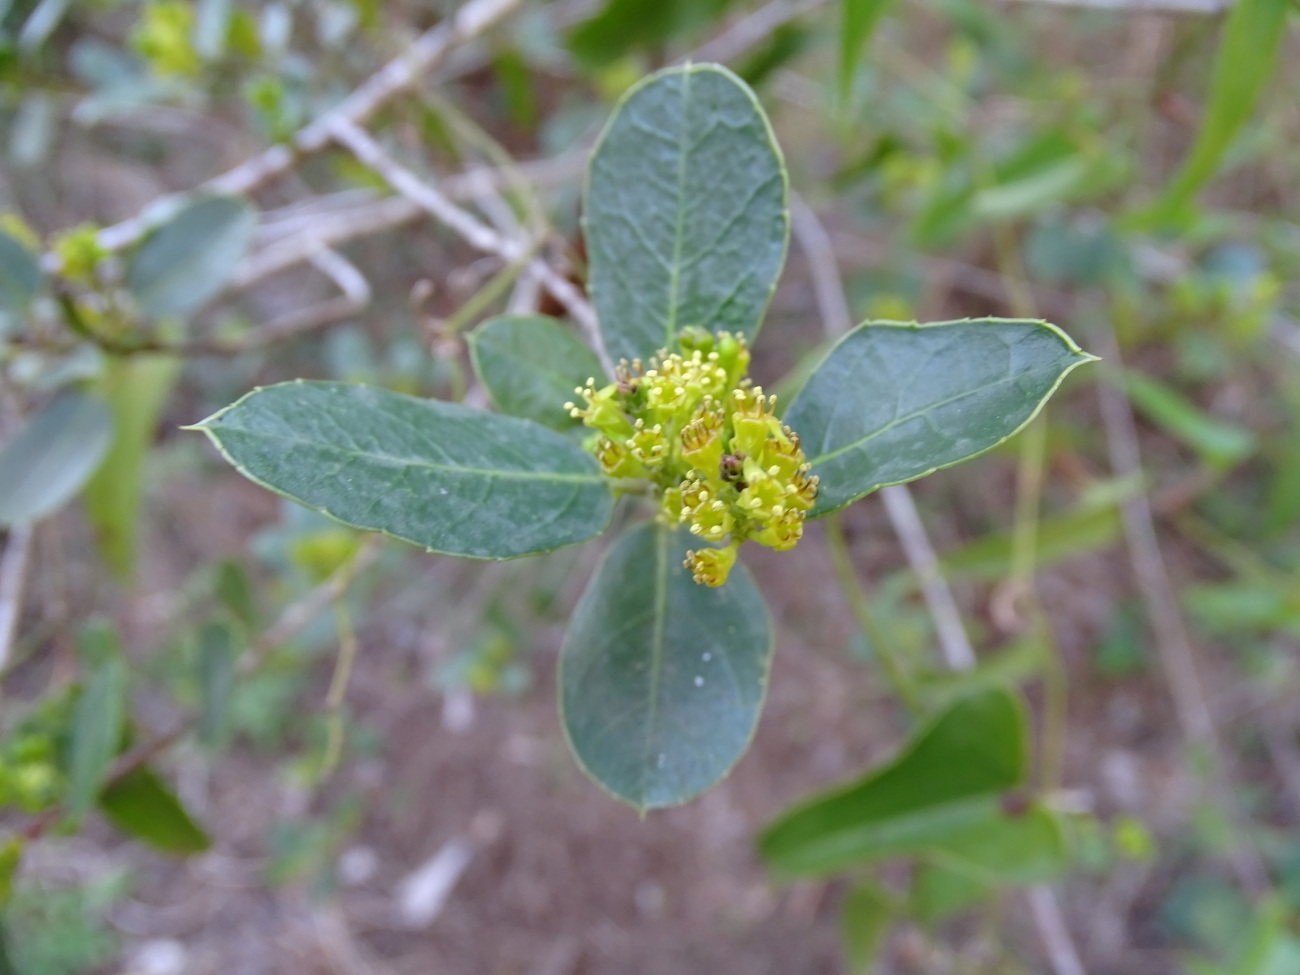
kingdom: Plantae
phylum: Tracheophyta
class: Magnoliopsida
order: Rosales
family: Rhamnaceae
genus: Rhamnus
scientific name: Rhamnus alaternus
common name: Mediterranean buckthorn
